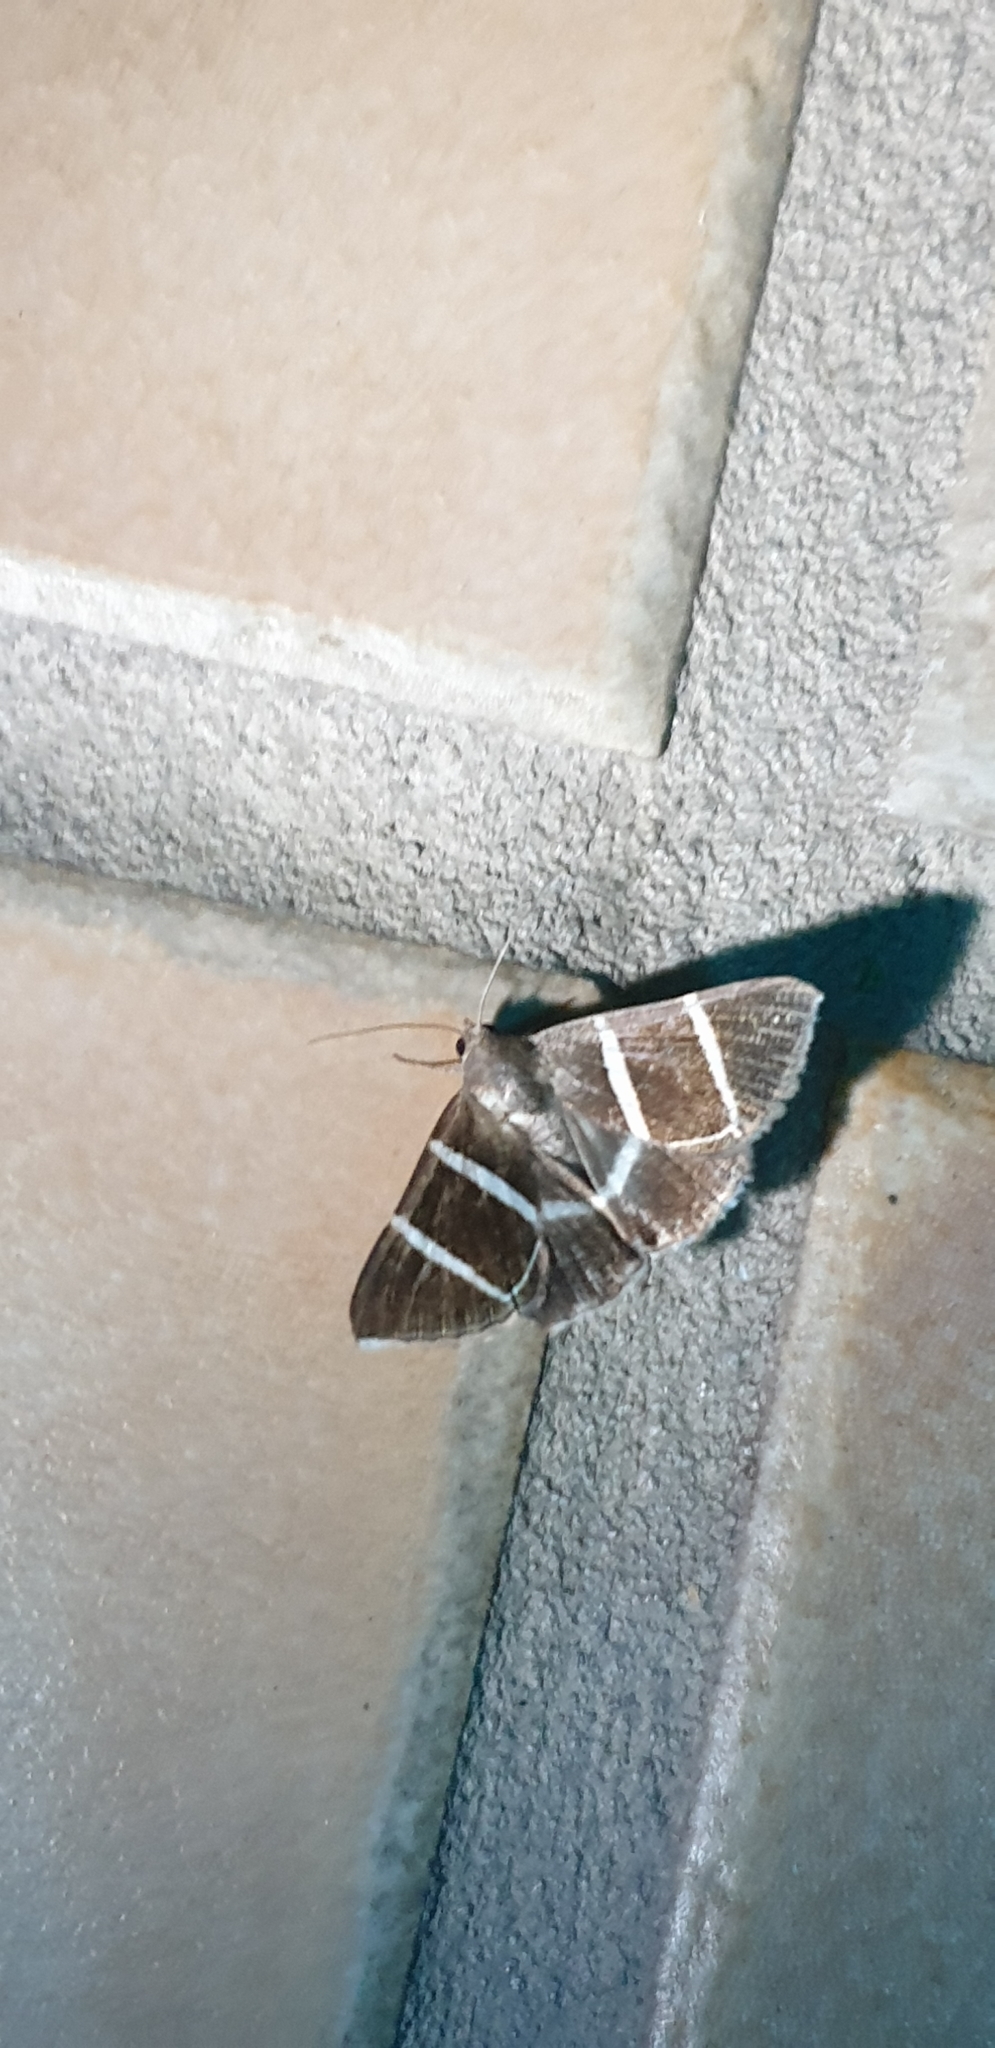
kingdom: Animalia
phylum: Arthropoda
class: Insecta
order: Lepidoptera
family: Erebidae
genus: Grammodes
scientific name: Grammodes justa
